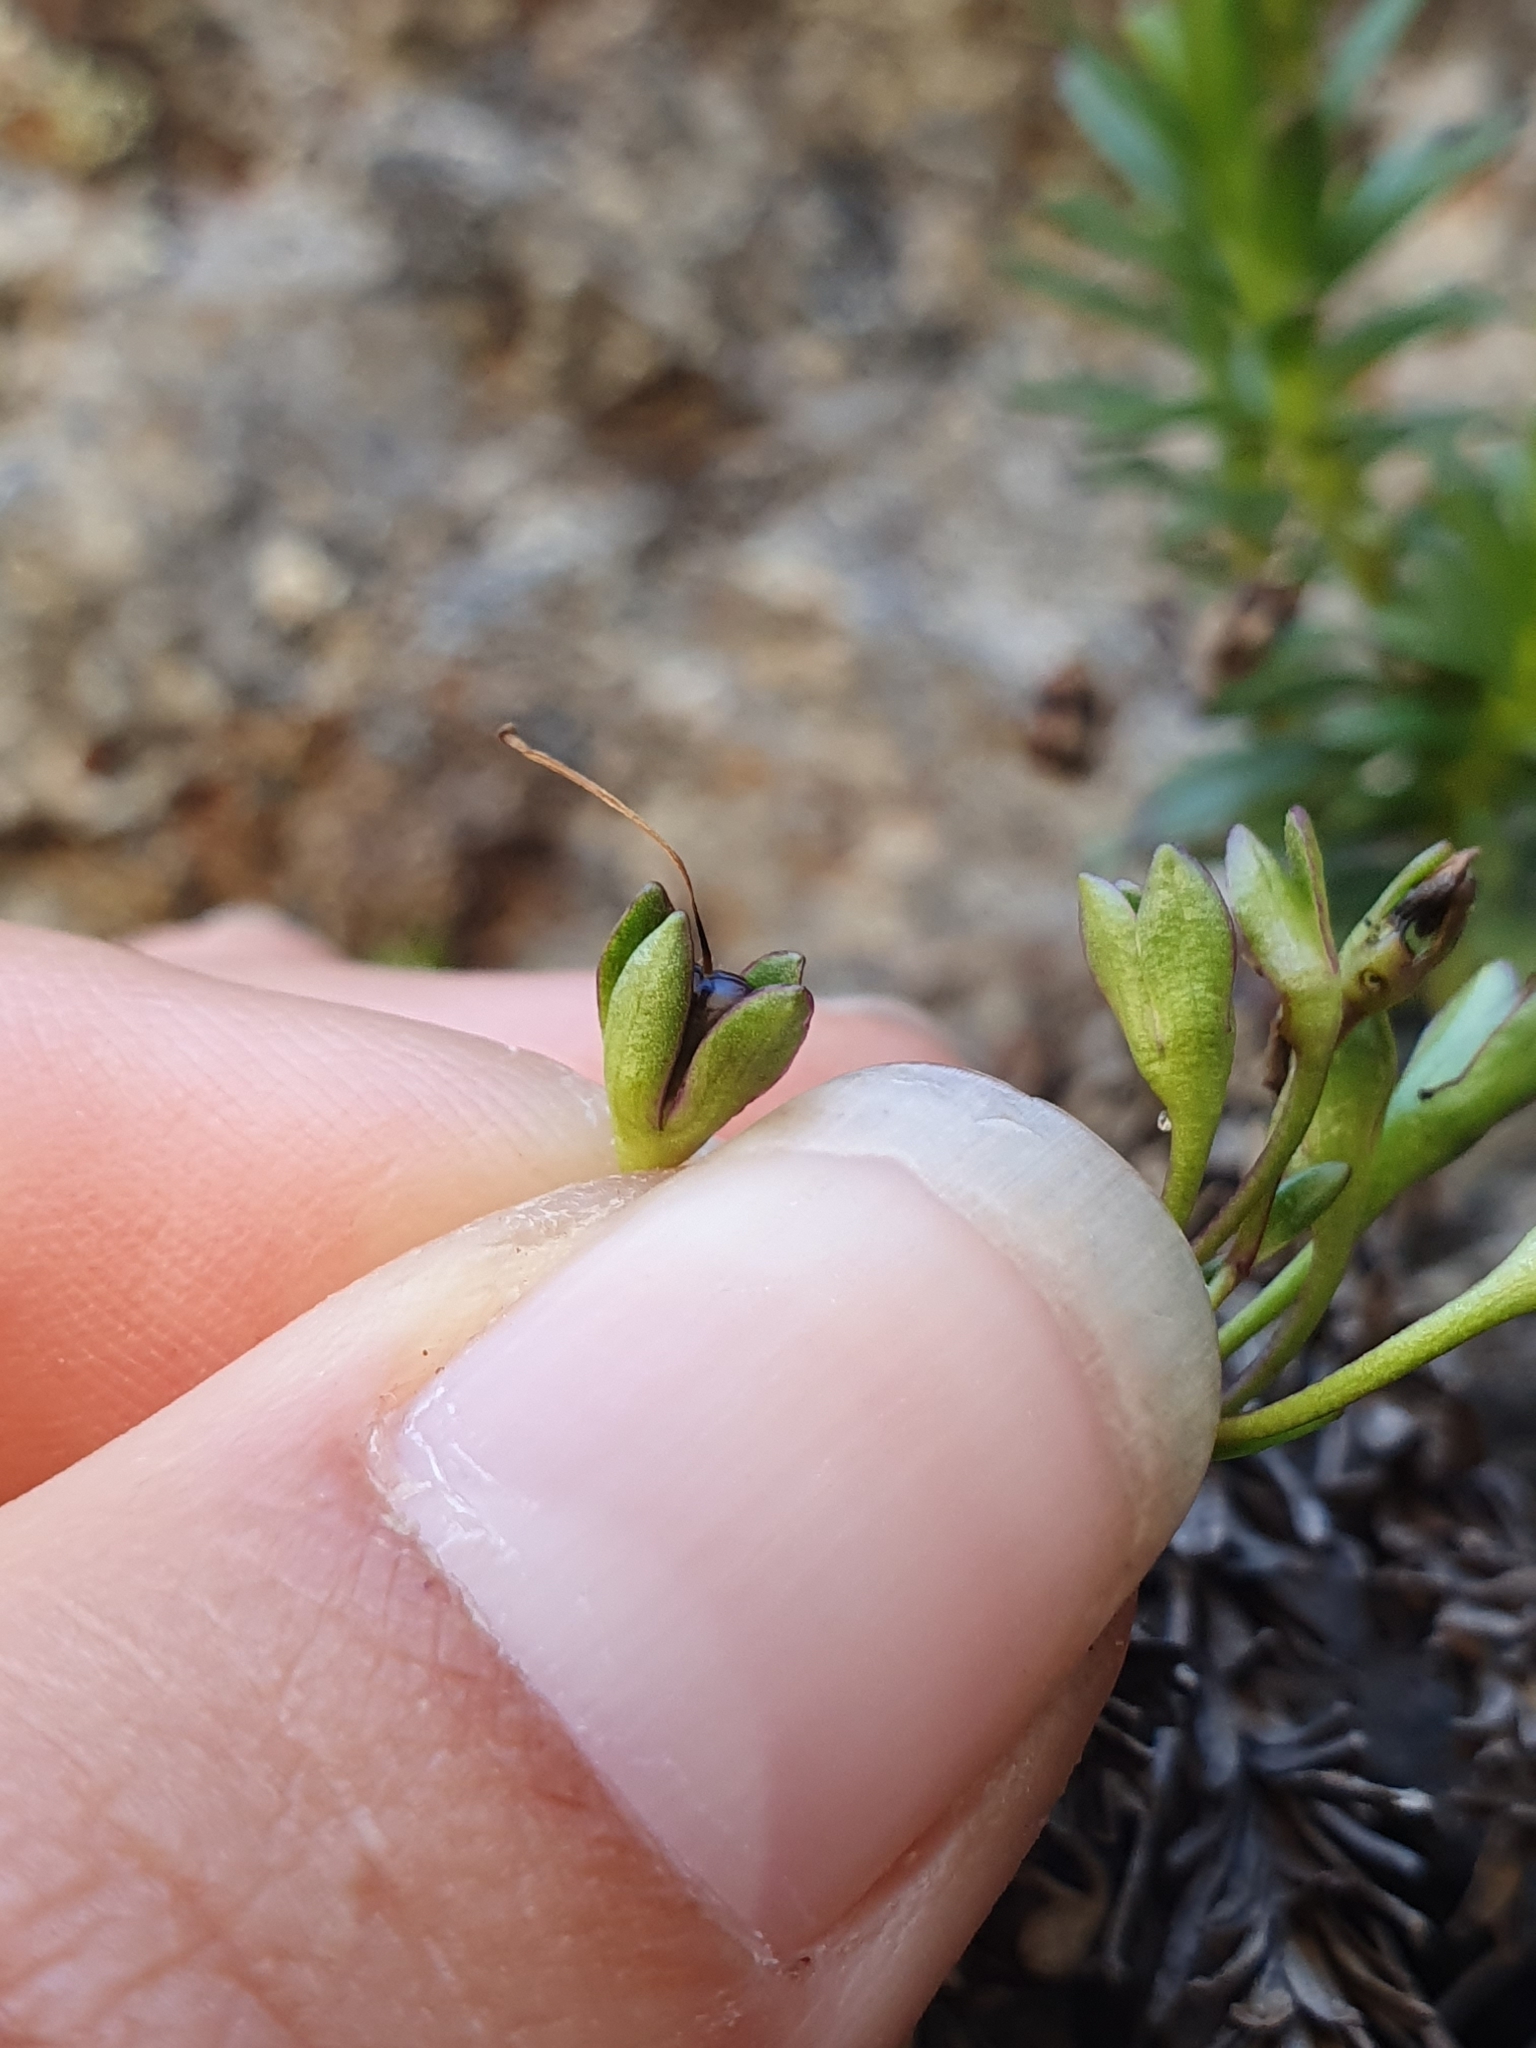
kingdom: Plantae
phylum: Tracheophyta
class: Magnoliopsida
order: Lamiales
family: Plantaginaceae
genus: Veronica
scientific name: Veronica linifolia
